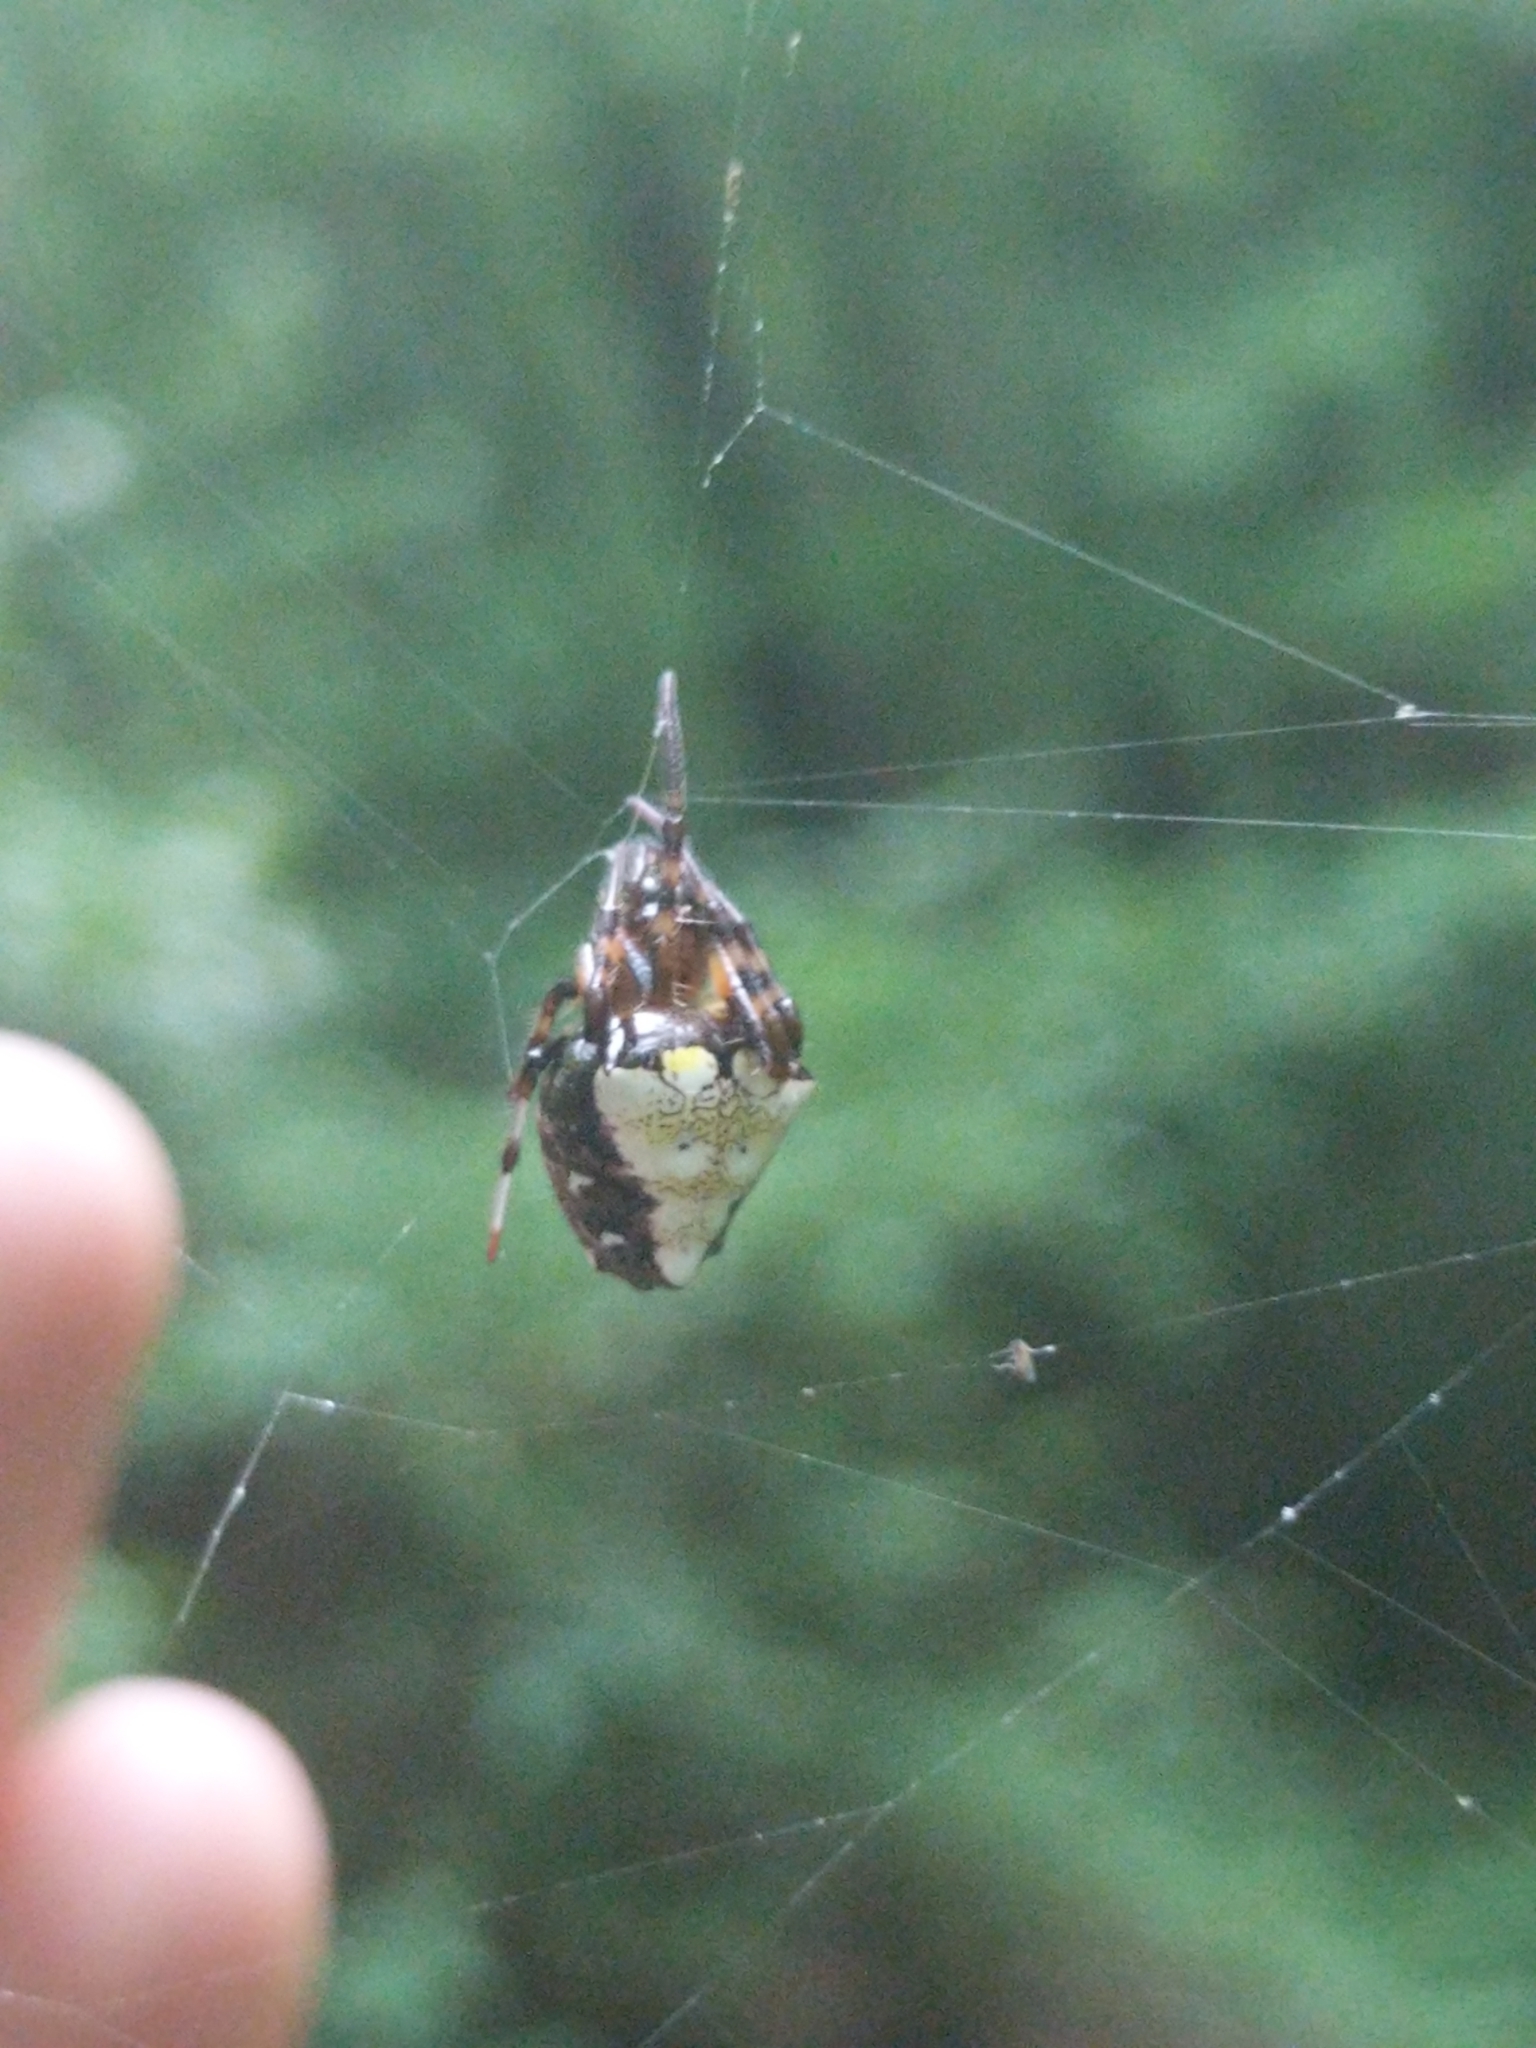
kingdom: Animalia
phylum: Arthropoda
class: Arachnida
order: Araneae
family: Araneidae
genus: Verrucosa
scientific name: Verrucosa arenata
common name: Orb weavers
